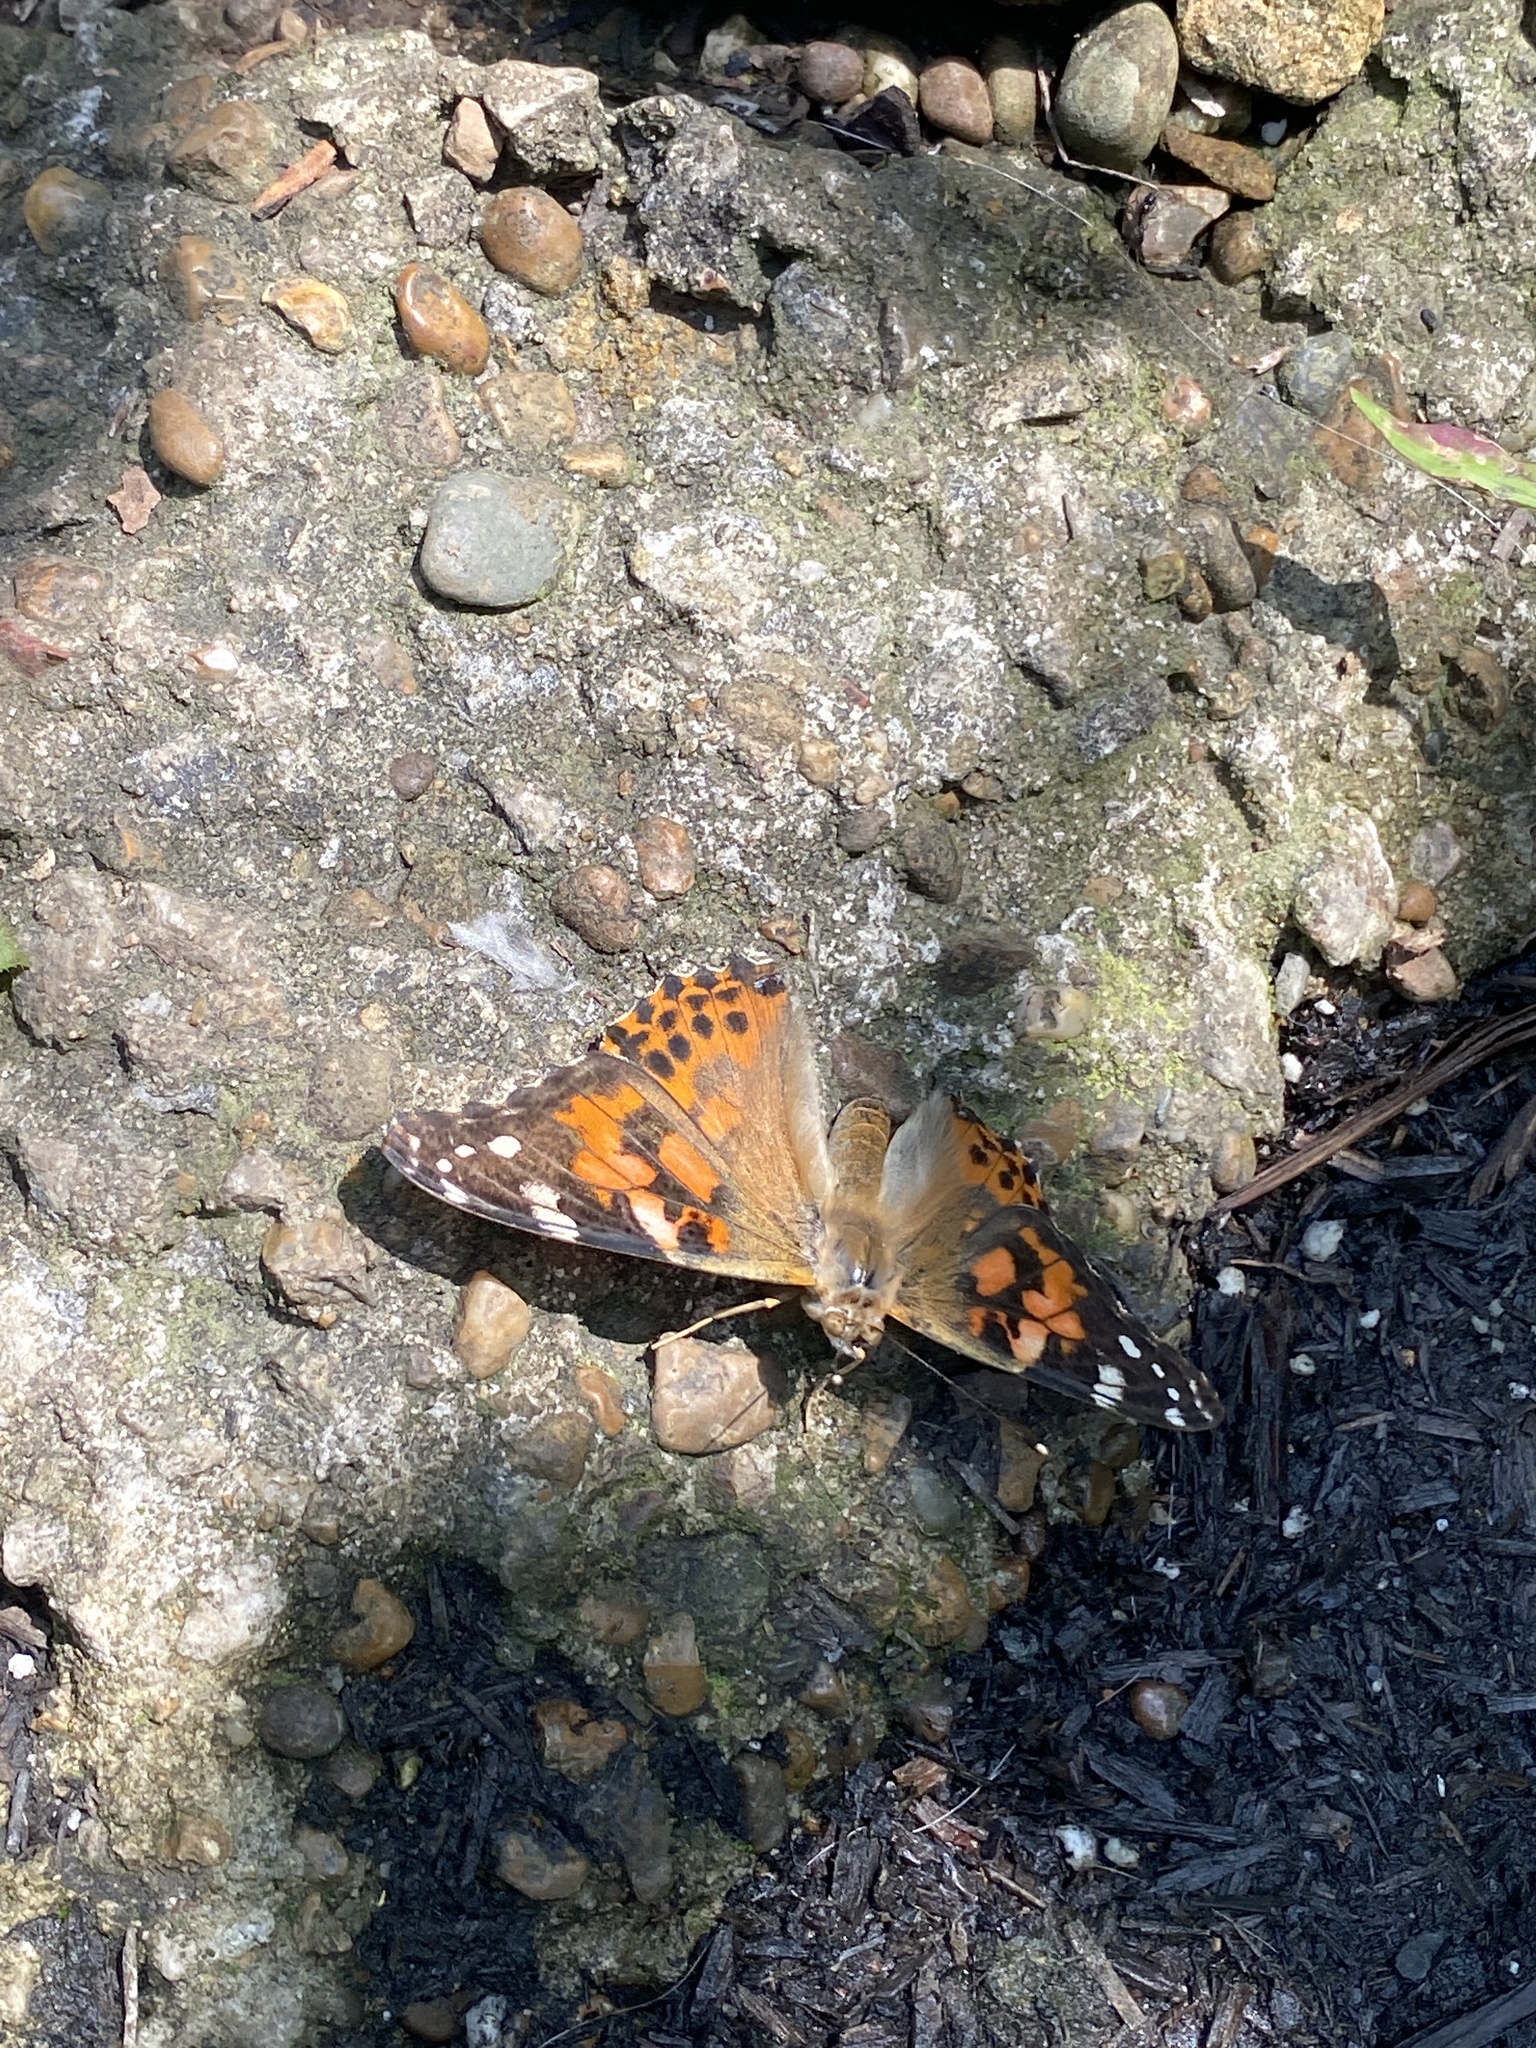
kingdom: Animalia
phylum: Arthropoda
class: Insecta
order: Lepidoptera
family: Nymphalidae
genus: Vanessa
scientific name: Vanessa cardui
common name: Painted lady
